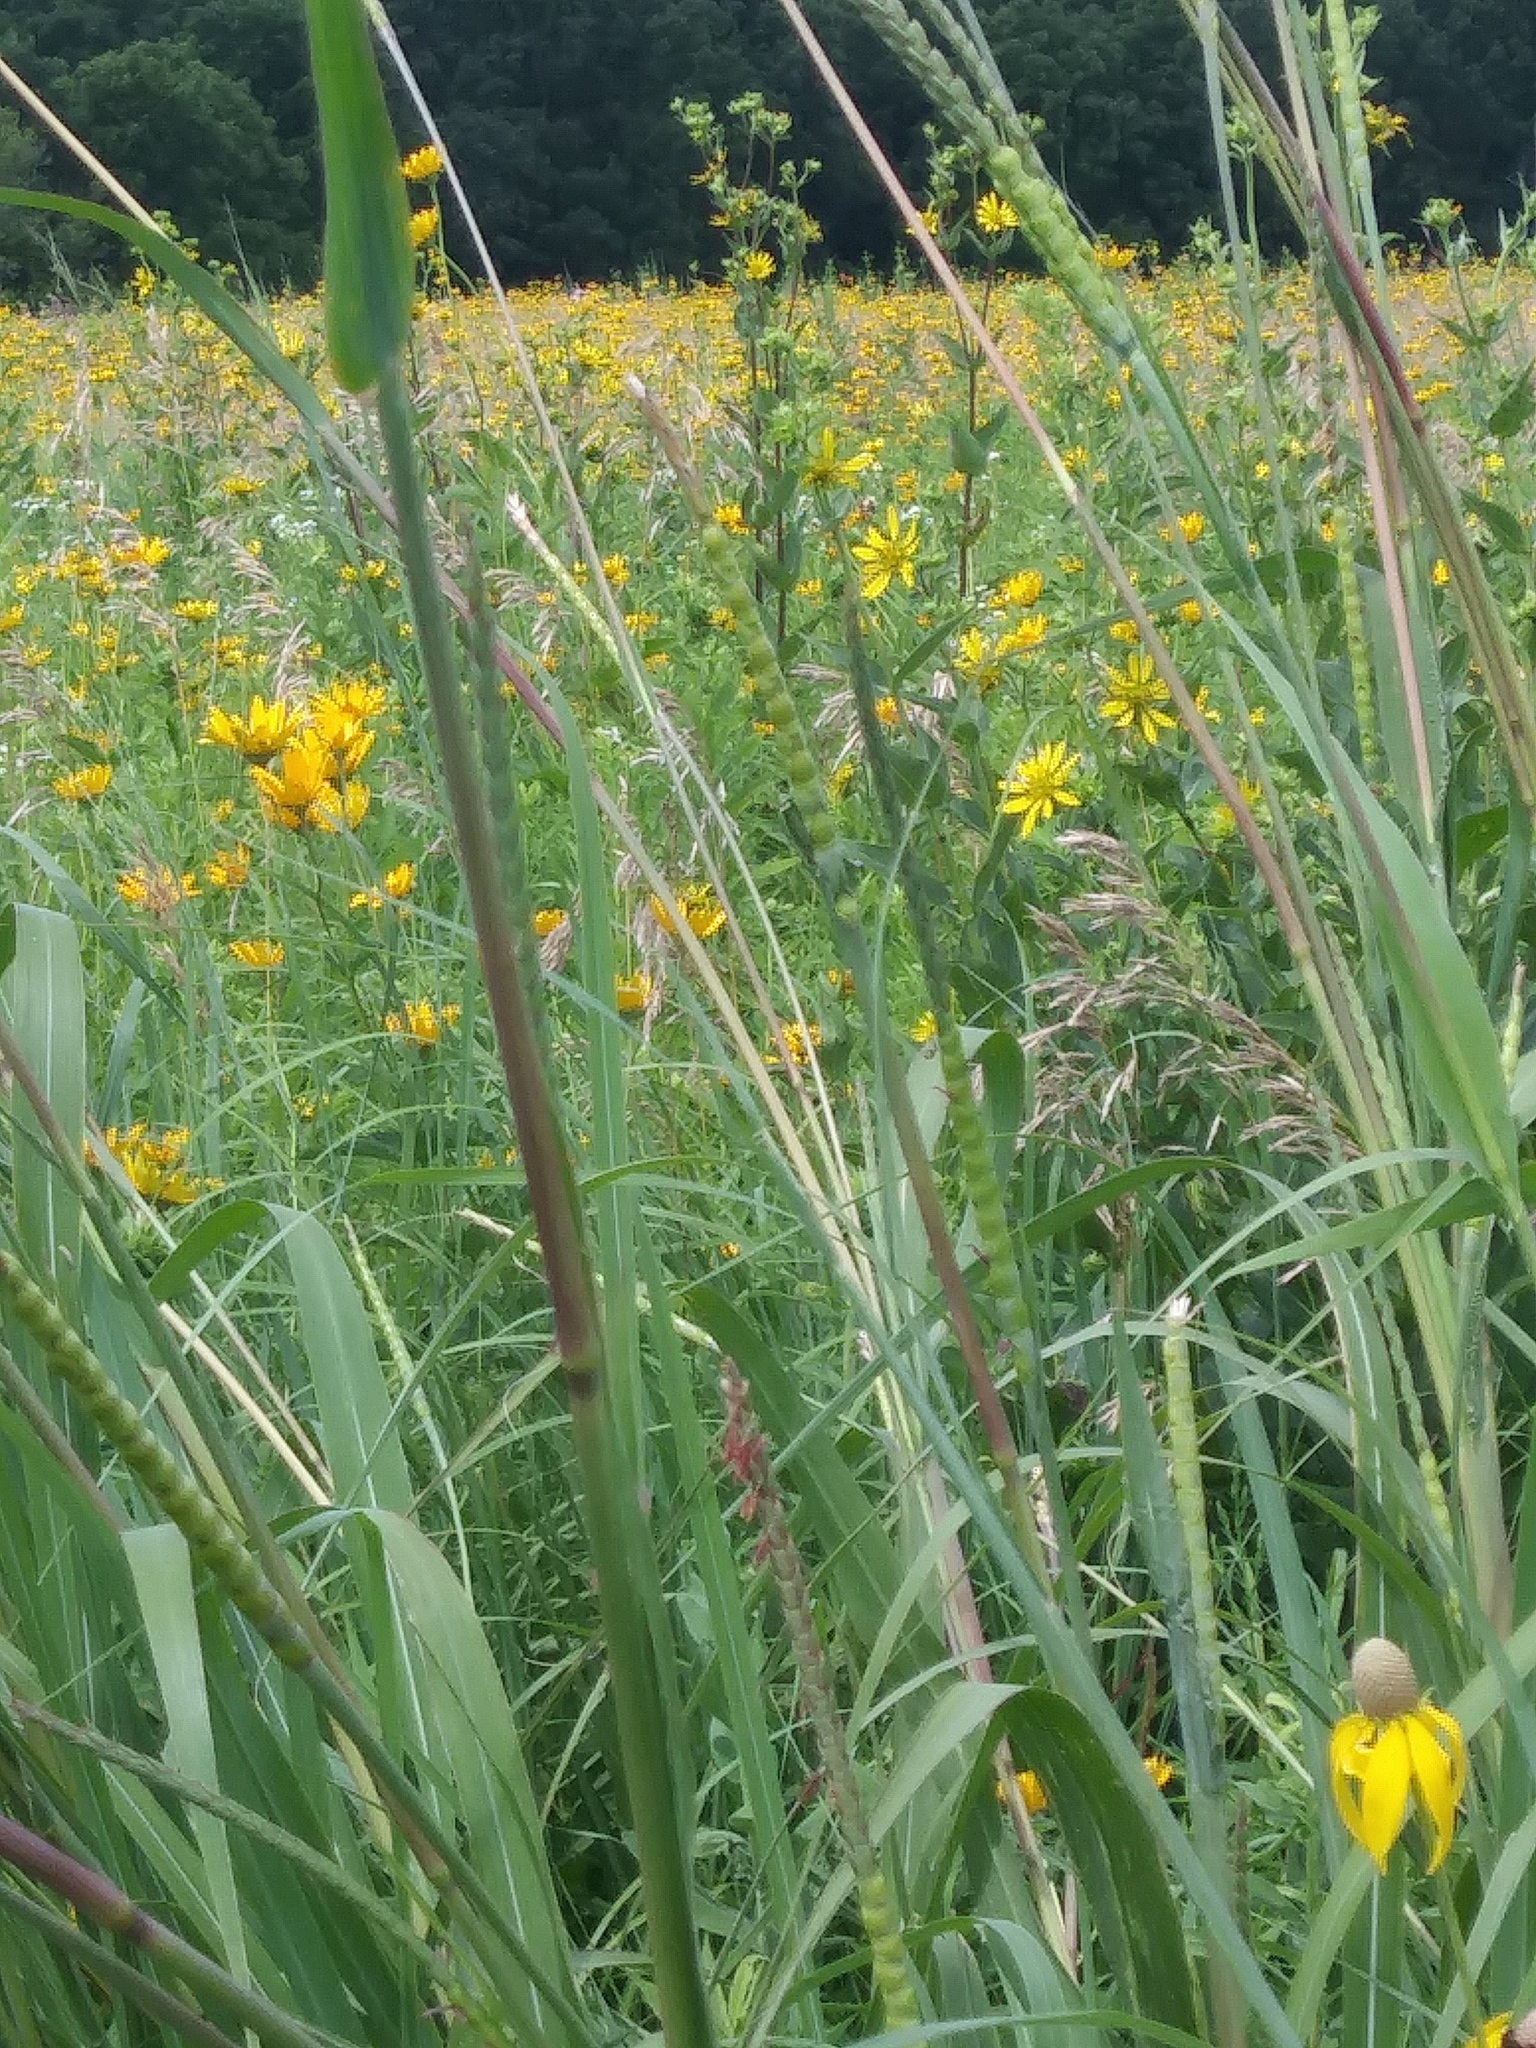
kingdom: Plantae
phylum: Tracheophyta
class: Liliopsida
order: Poales
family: Poaceae
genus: Tripsacum
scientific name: Tripsacum dactyloides
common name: Buffalo-grass
